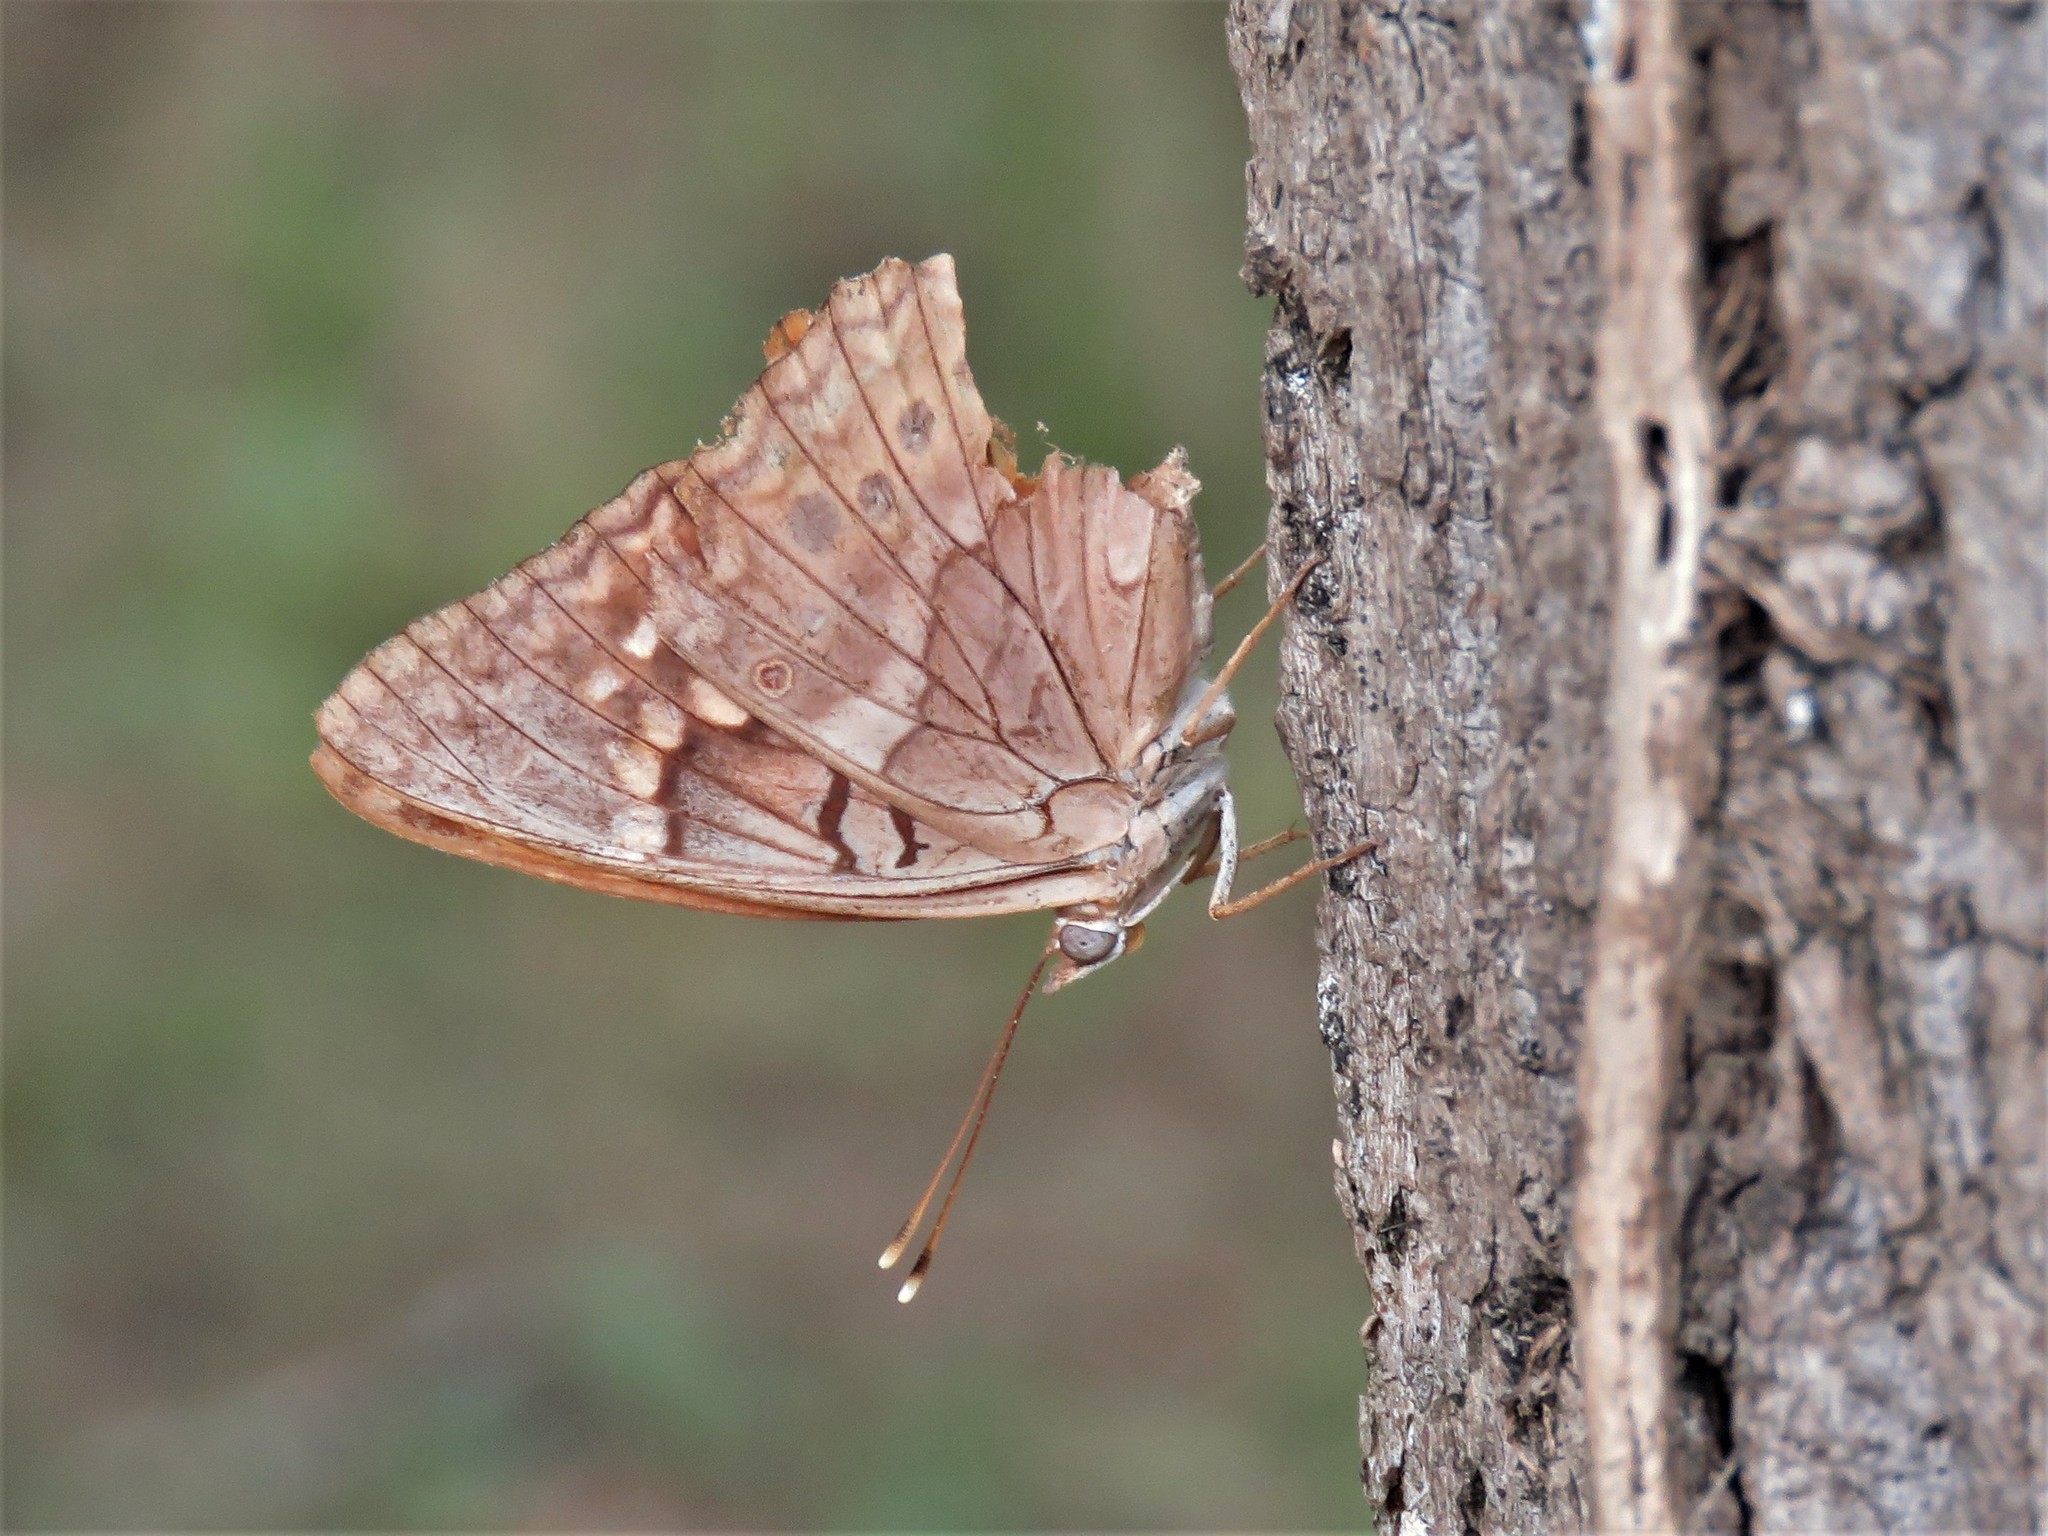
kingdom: Animalia
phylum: Arthropoda
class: Insecta
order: Lepidoptera
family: Nymphalidae
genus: Asterocampa
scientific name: Asterocampa clyton
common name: Tawny emperor
